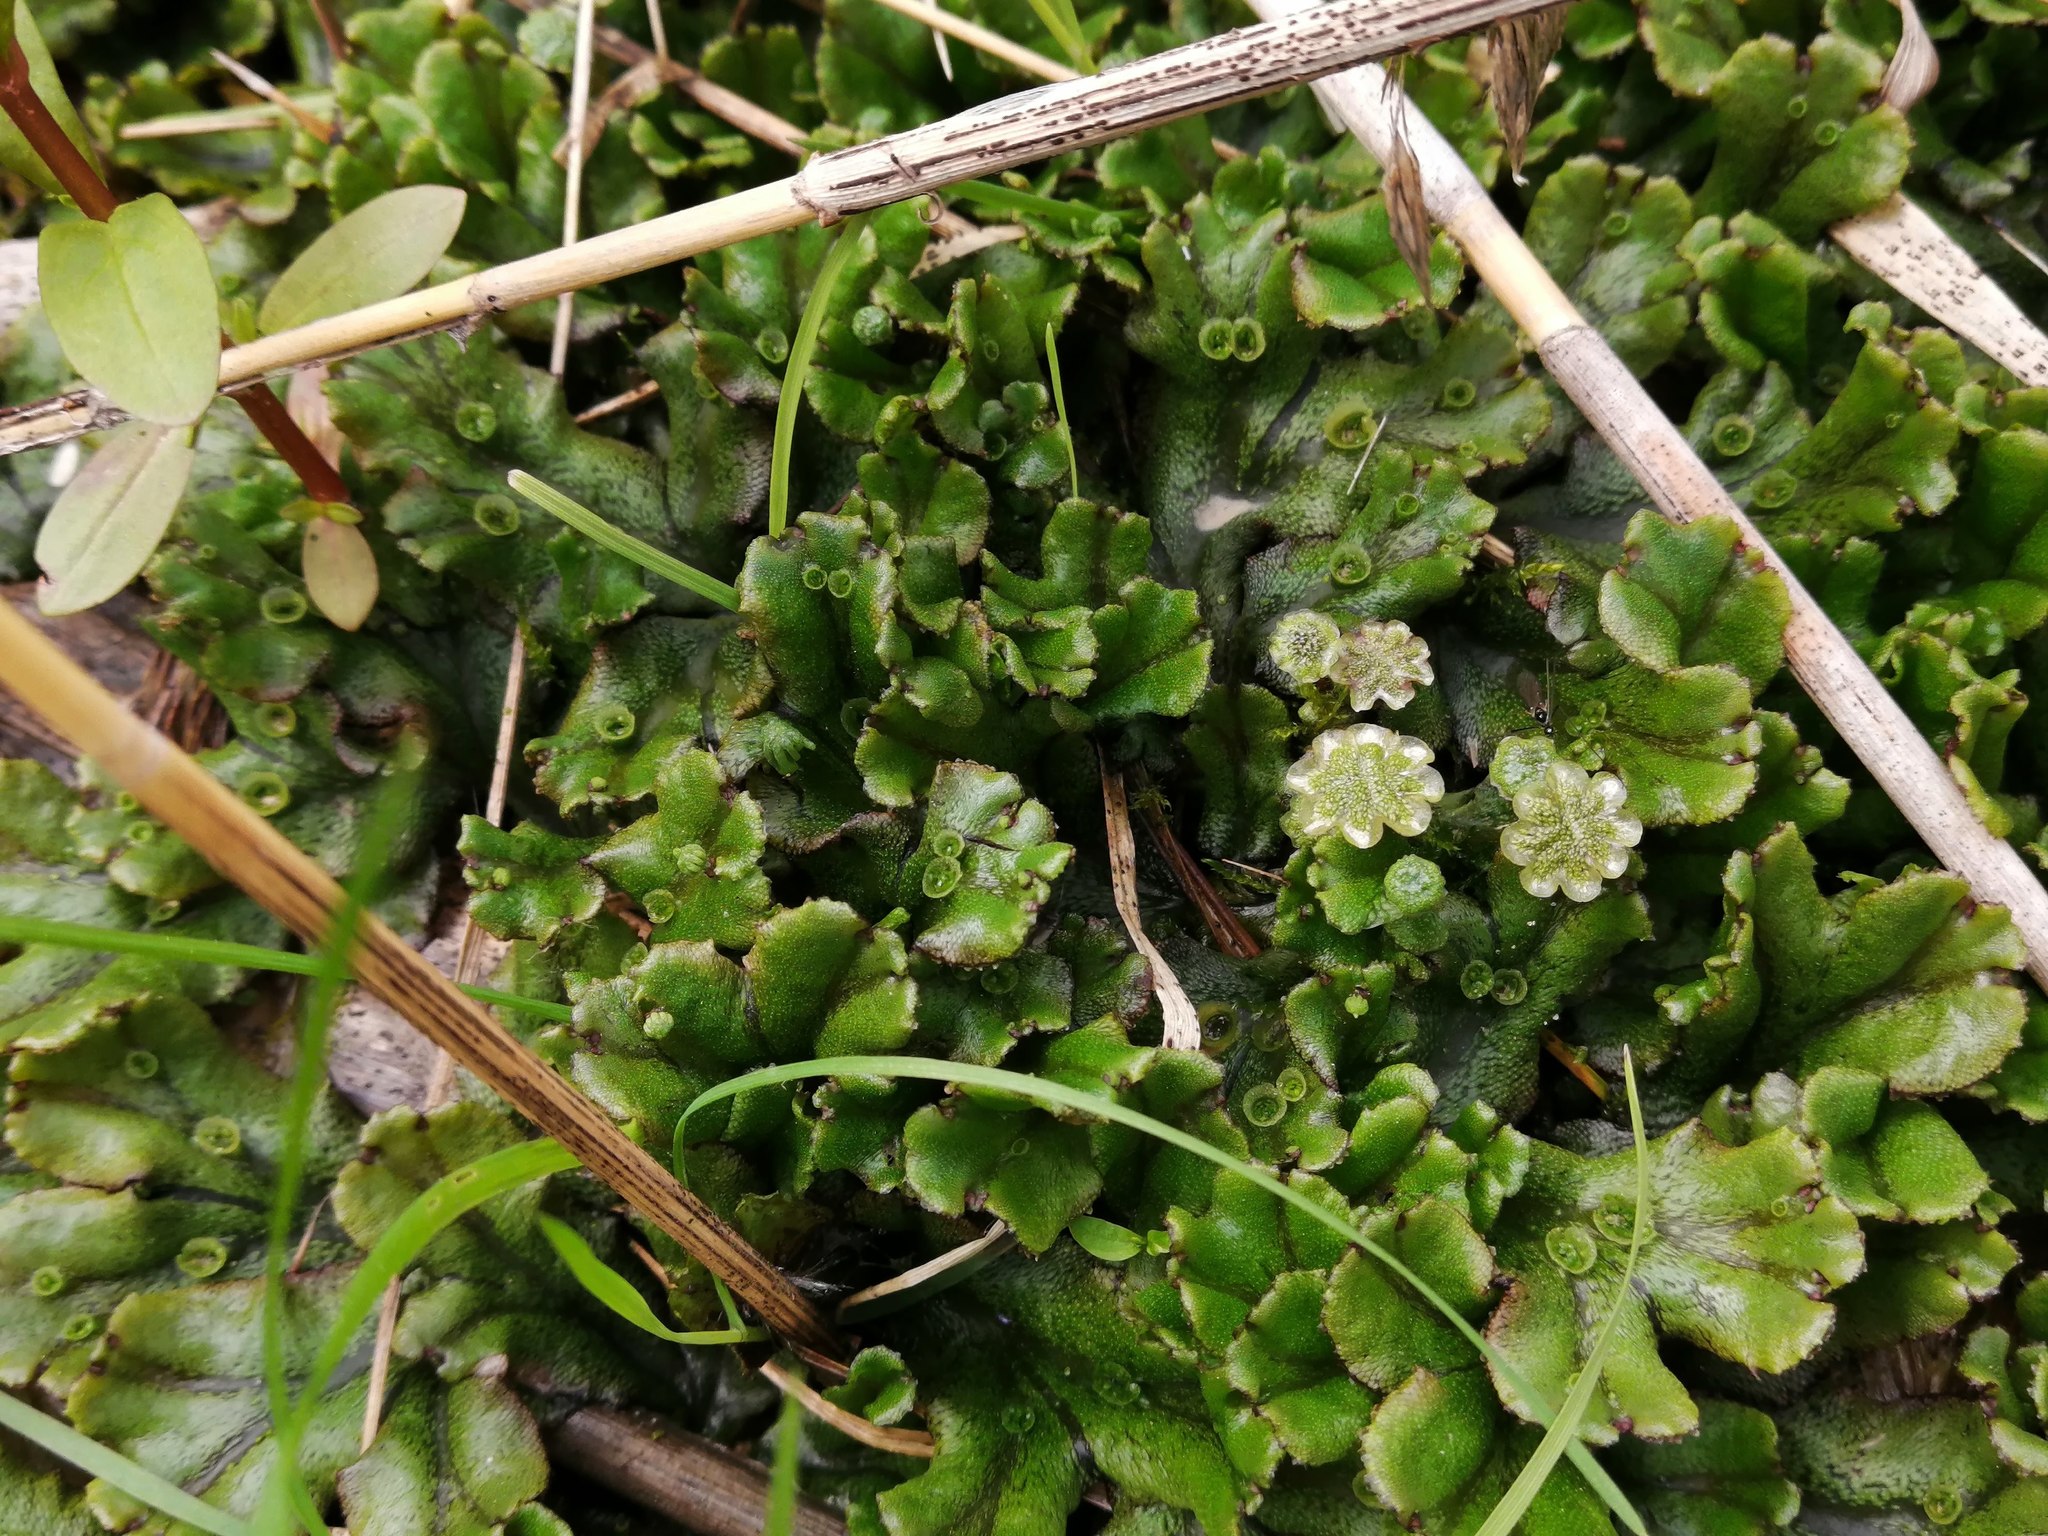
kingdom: Plantae
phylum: Marchantiophyta
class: Marchantiopsida
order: Marchantiales
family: Marchantiaceae
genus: Marchantia
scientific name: Marchantia polymorpha
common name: Common liverwort
